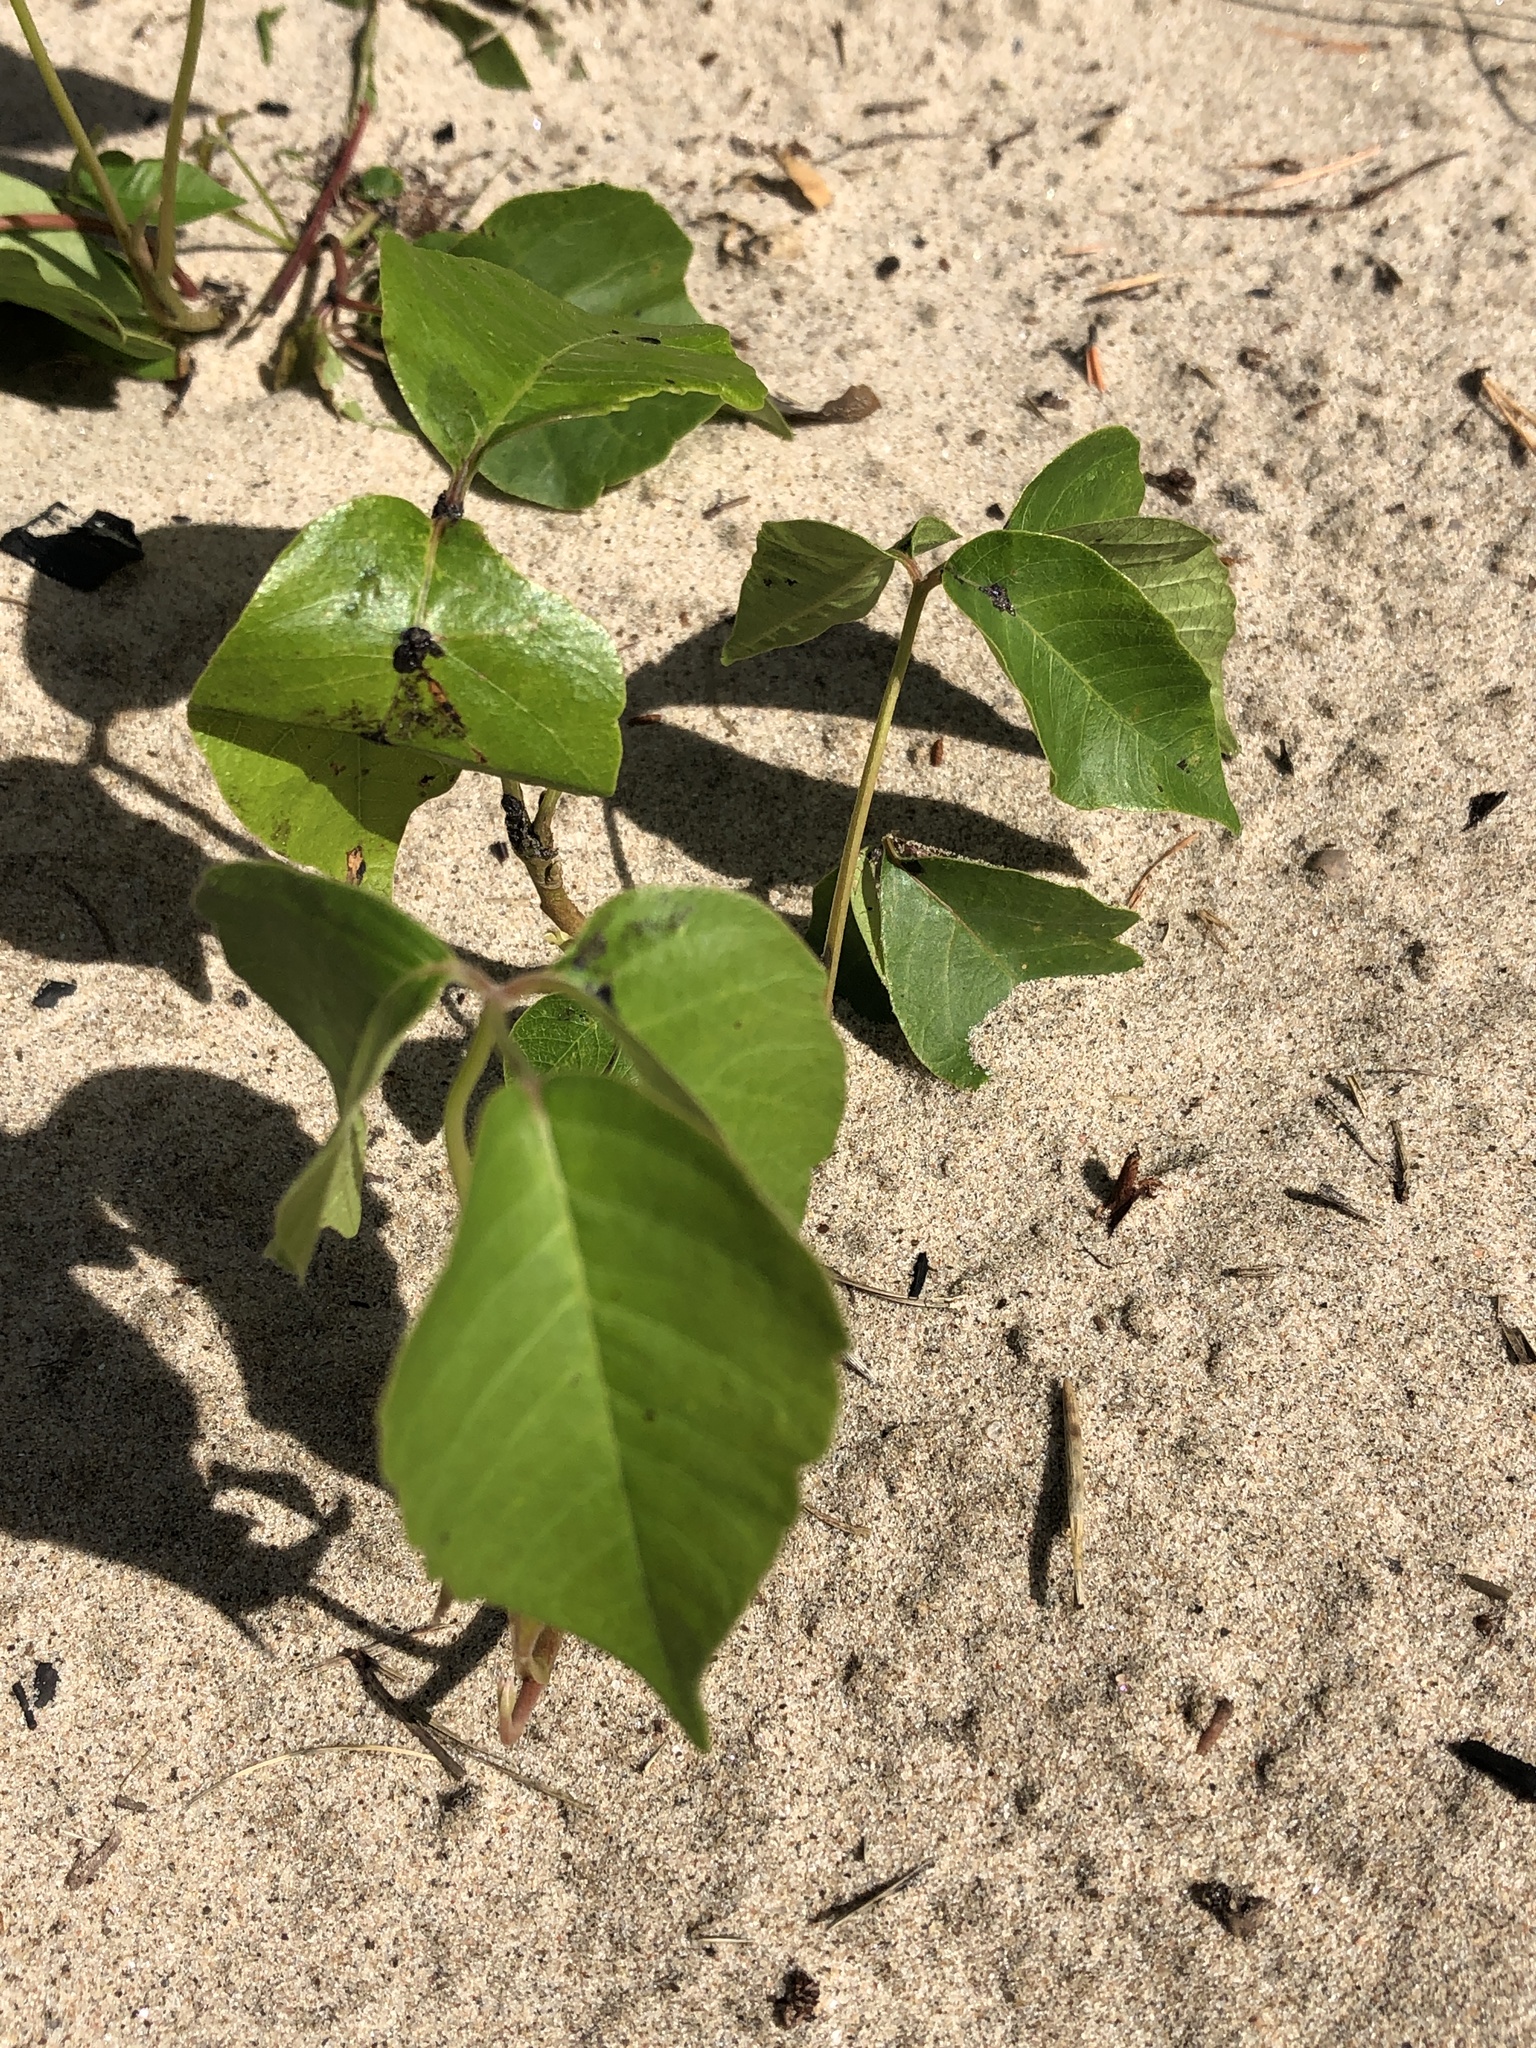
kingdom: Plantae
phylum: Tracheophyta
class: Magnoliopsida
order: Sapindales
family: Anacardiaceae
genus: Toxicodendron
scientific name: Toxicodendron rydbergii
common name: Rydberg's poison-ivy
